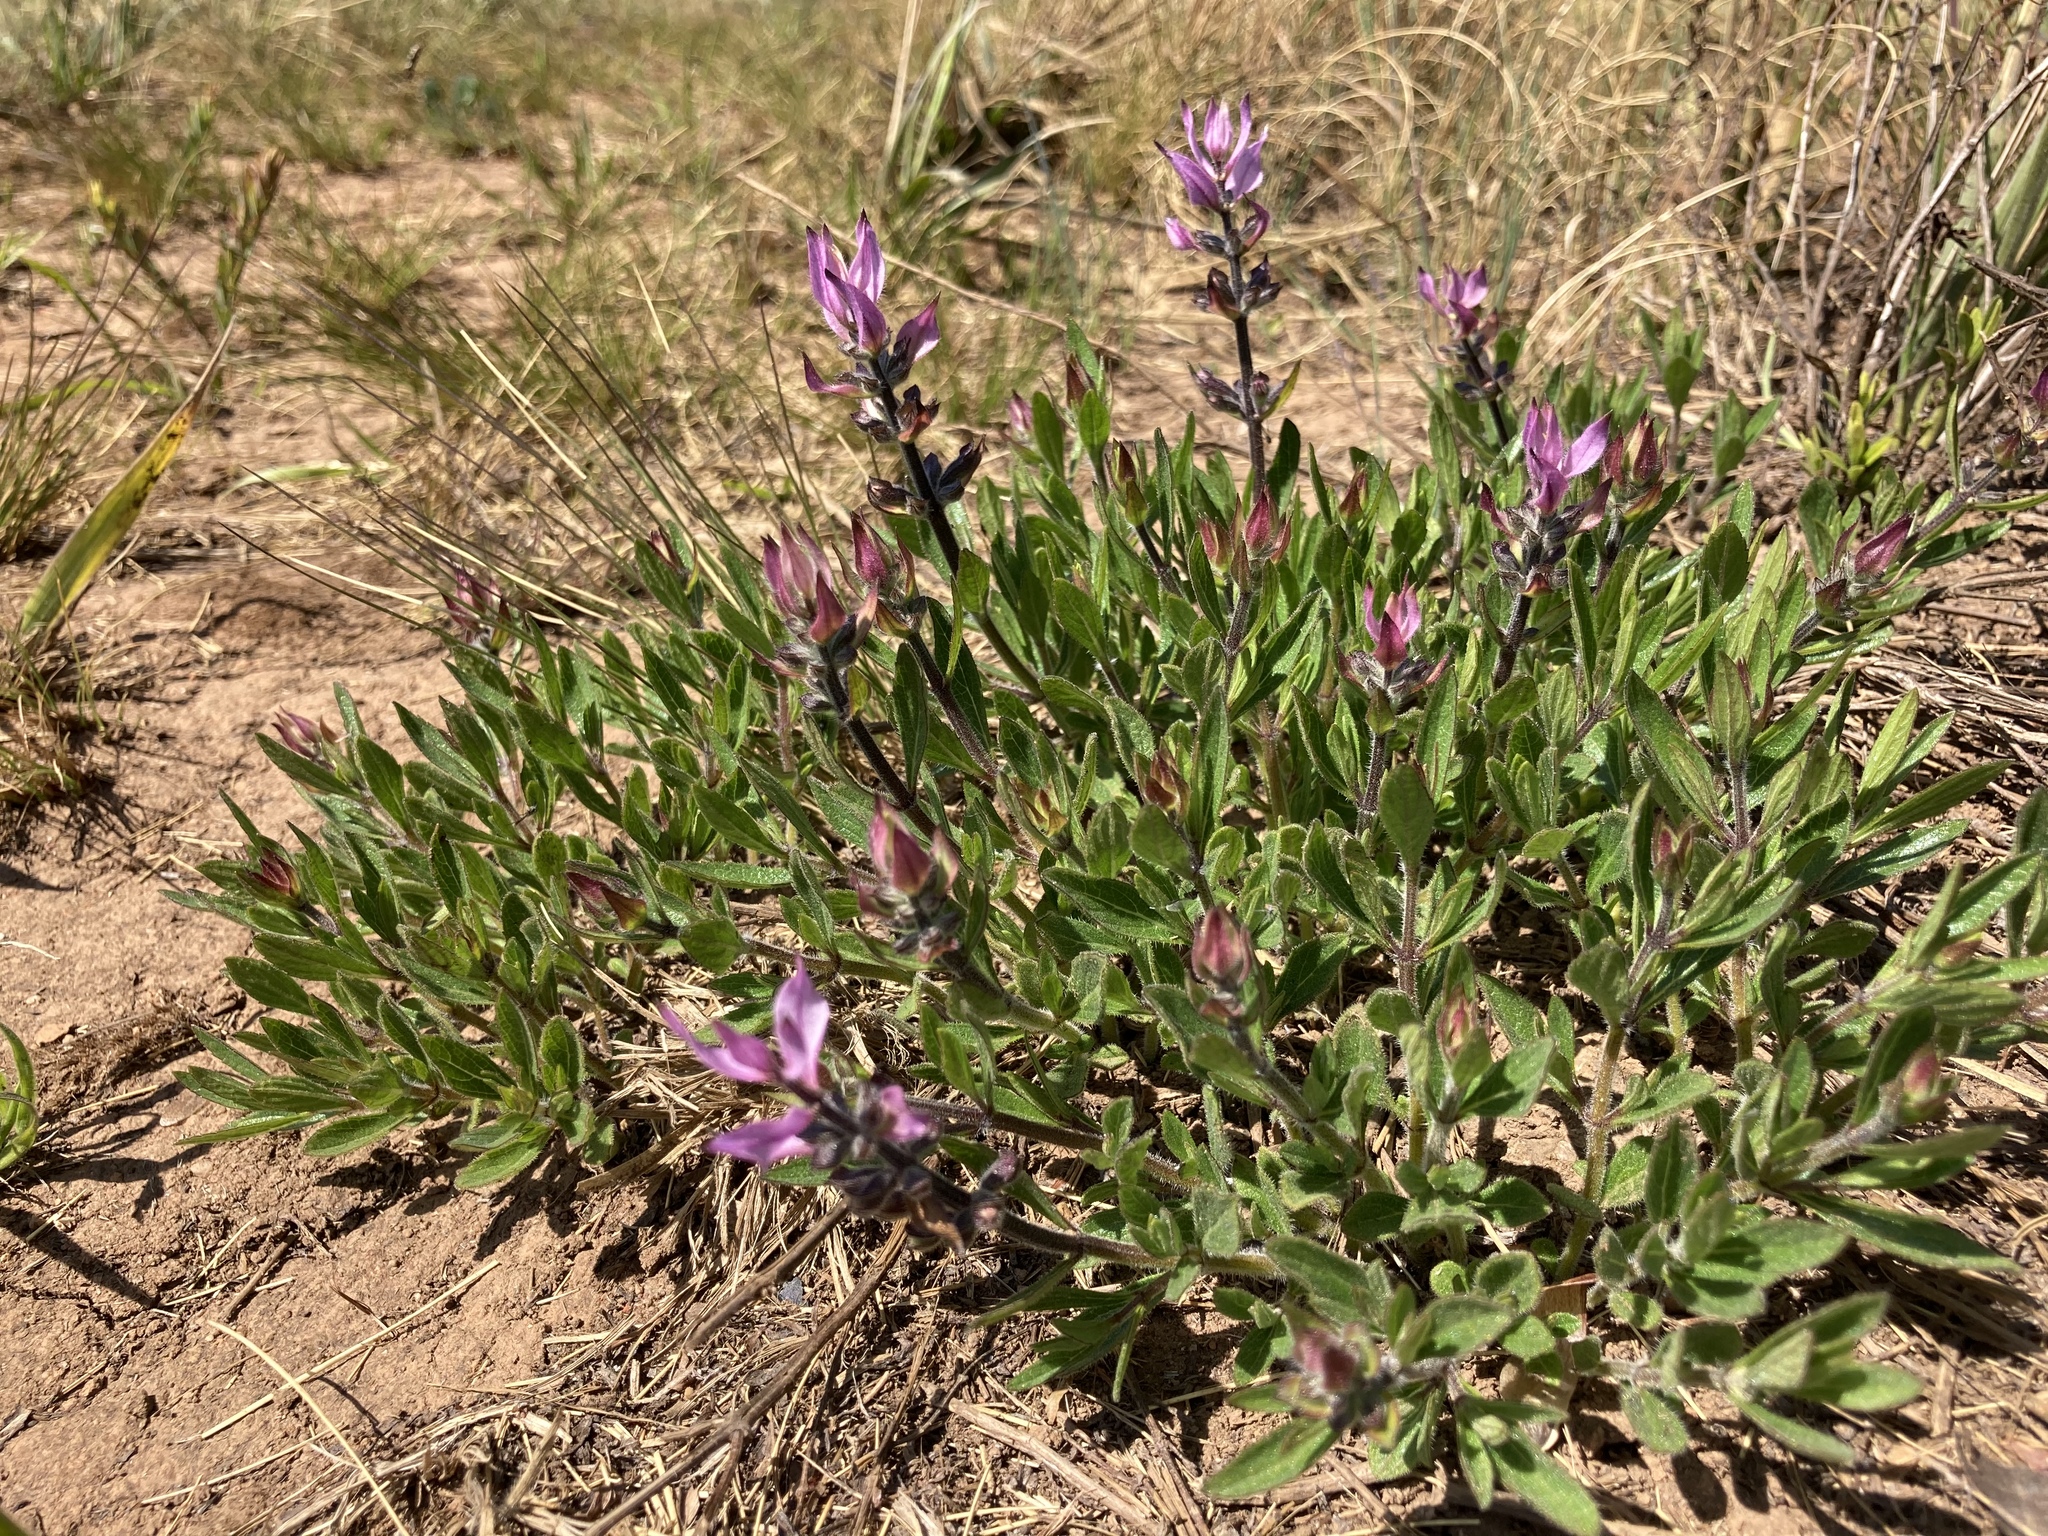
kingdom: Plantae
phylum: Tracheophyta
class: Magnoliopsida
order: Lamiales
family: Lamiaceae
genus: Syncolostemon
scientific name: Syncolostemon
